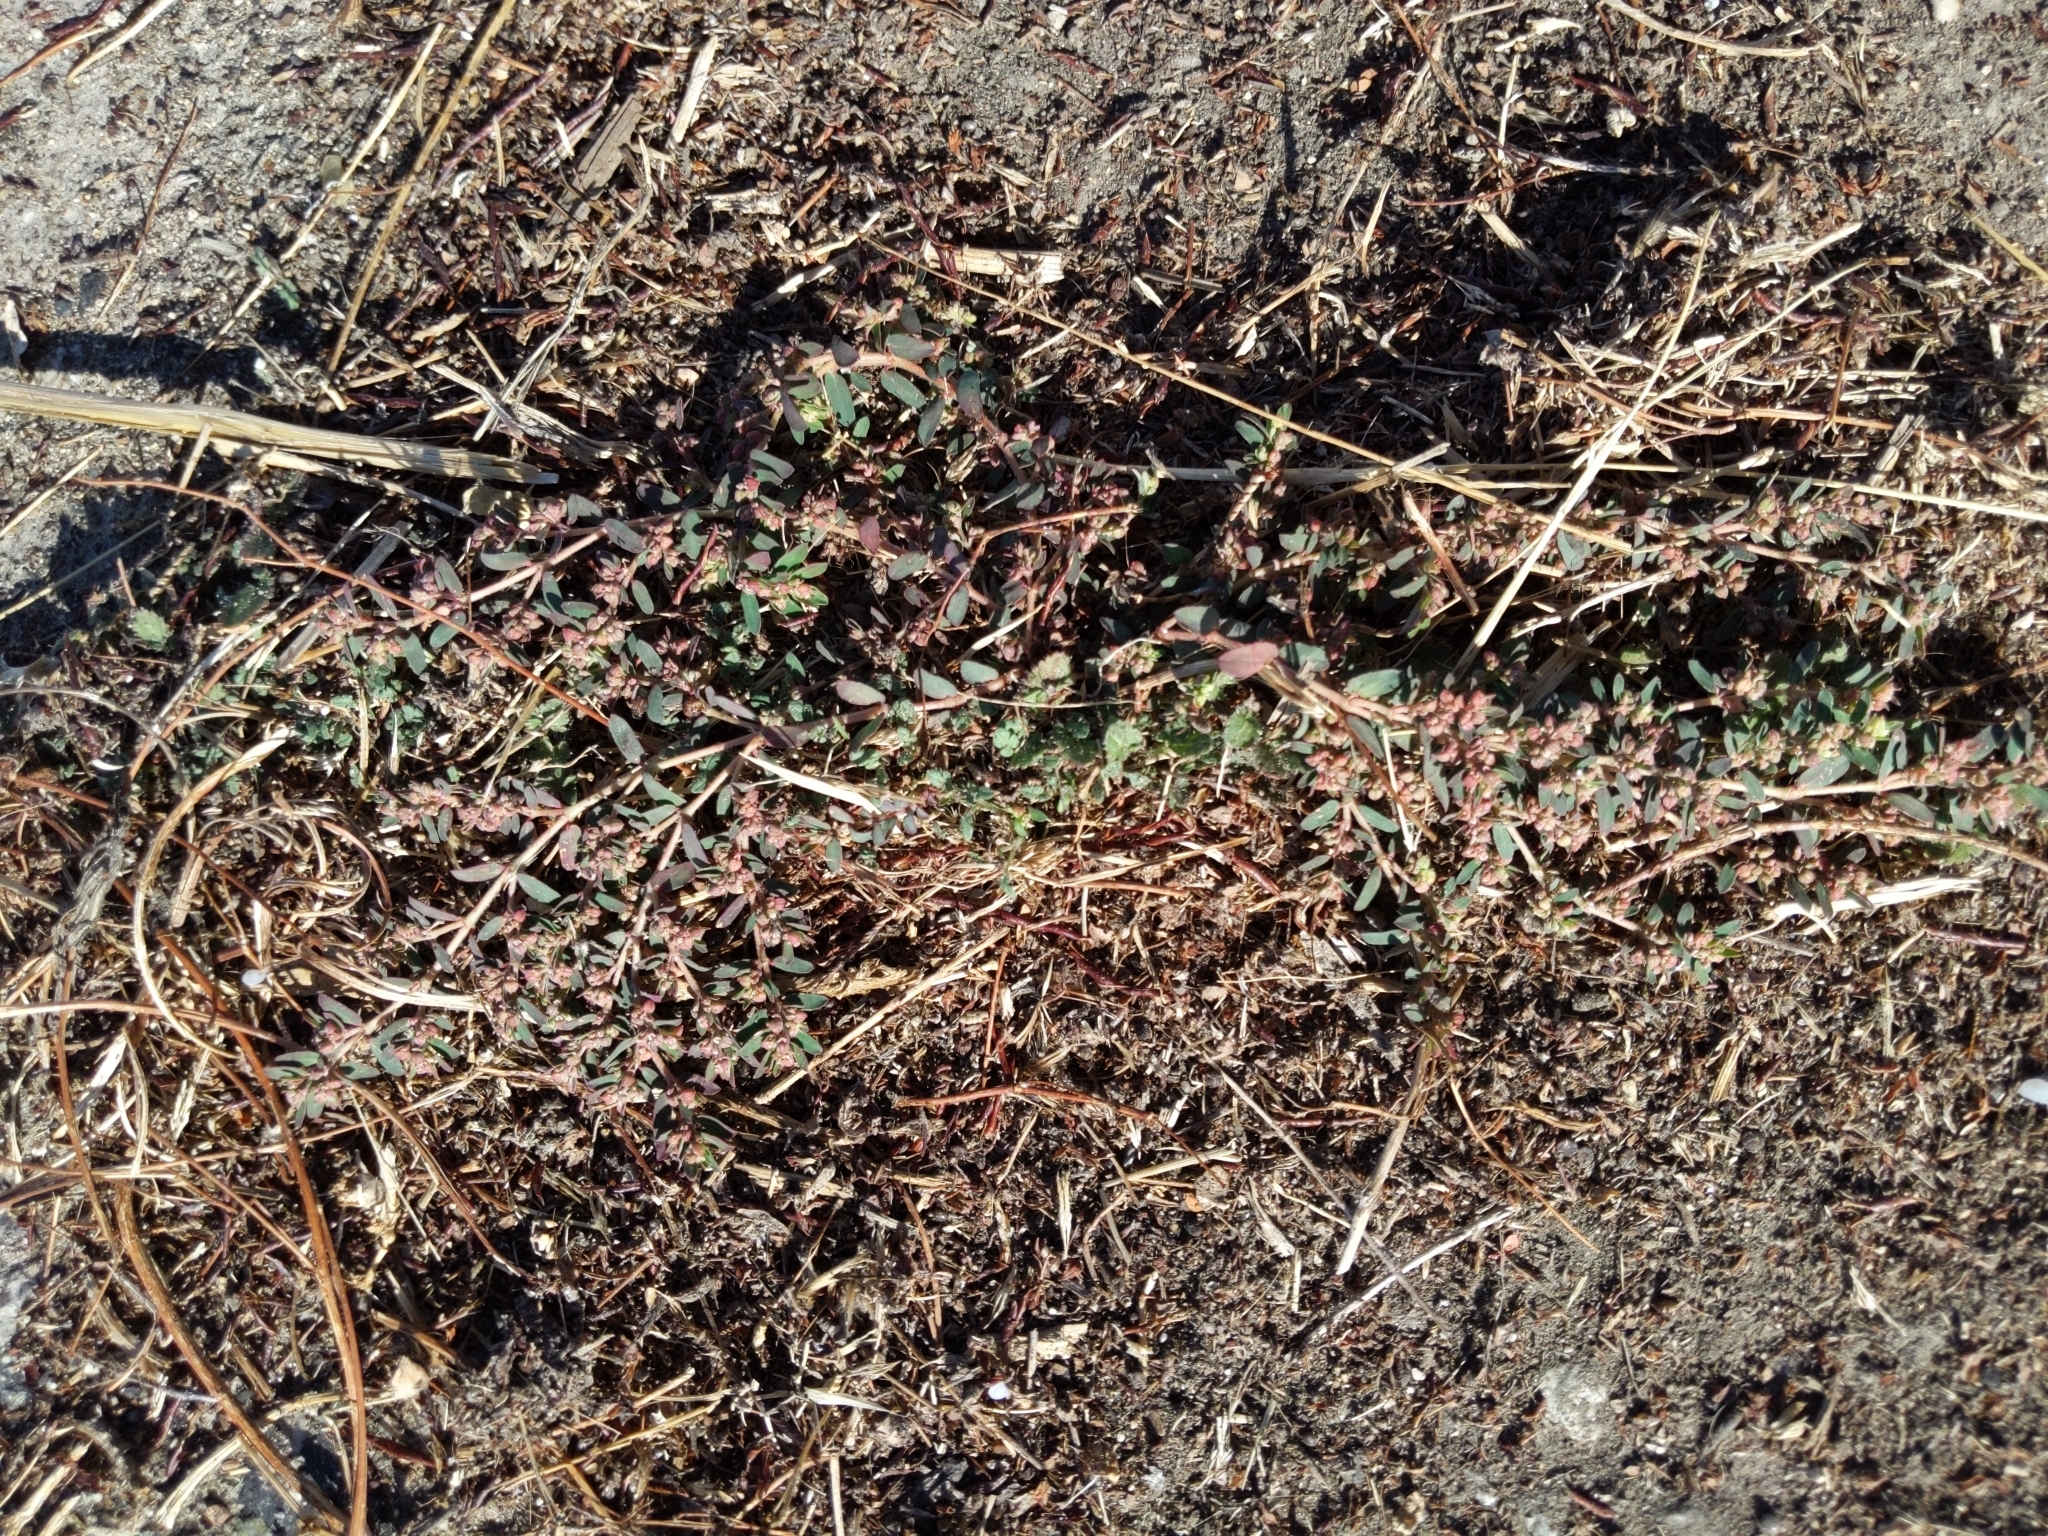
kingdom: Plantae
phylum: Tracheophyta
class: Magnoliopsida
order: Malpighiales
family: Euphorbiaceae
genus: Euphorbia
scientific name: Euphorbia maculata
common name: Spotted spurge
